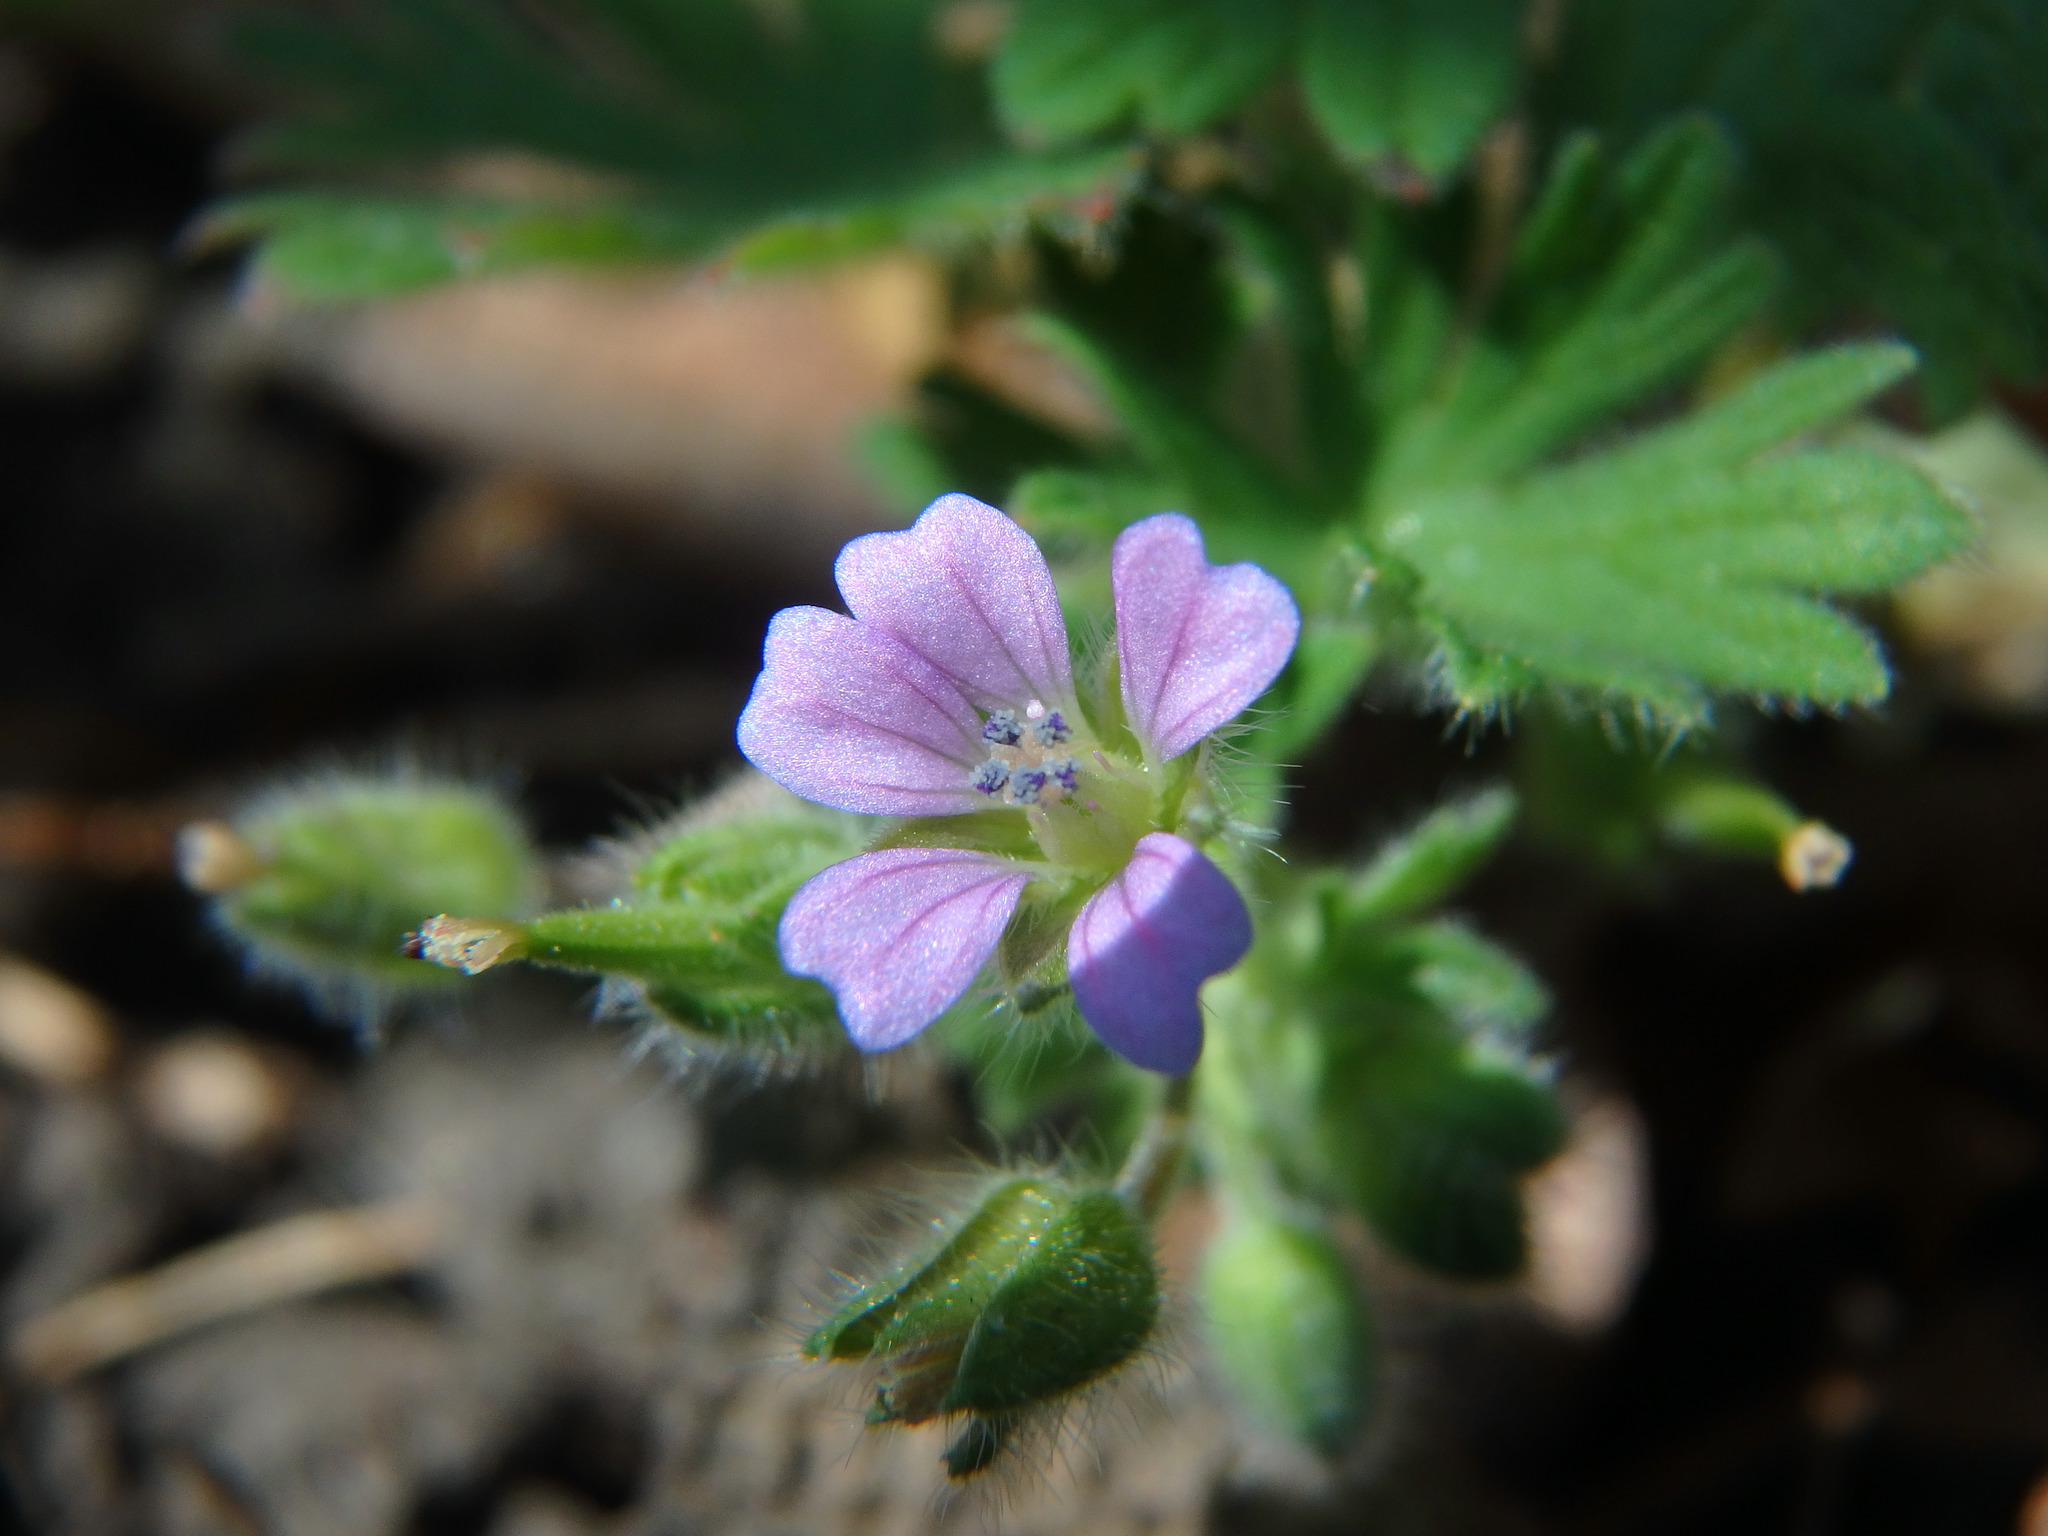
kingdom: Plantae
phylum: Tracheophyta
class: Magnoliopsida
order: Geraniales
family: Geraniaceae
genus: Geranium
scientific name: Geranium pusillum
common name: Small geranium
